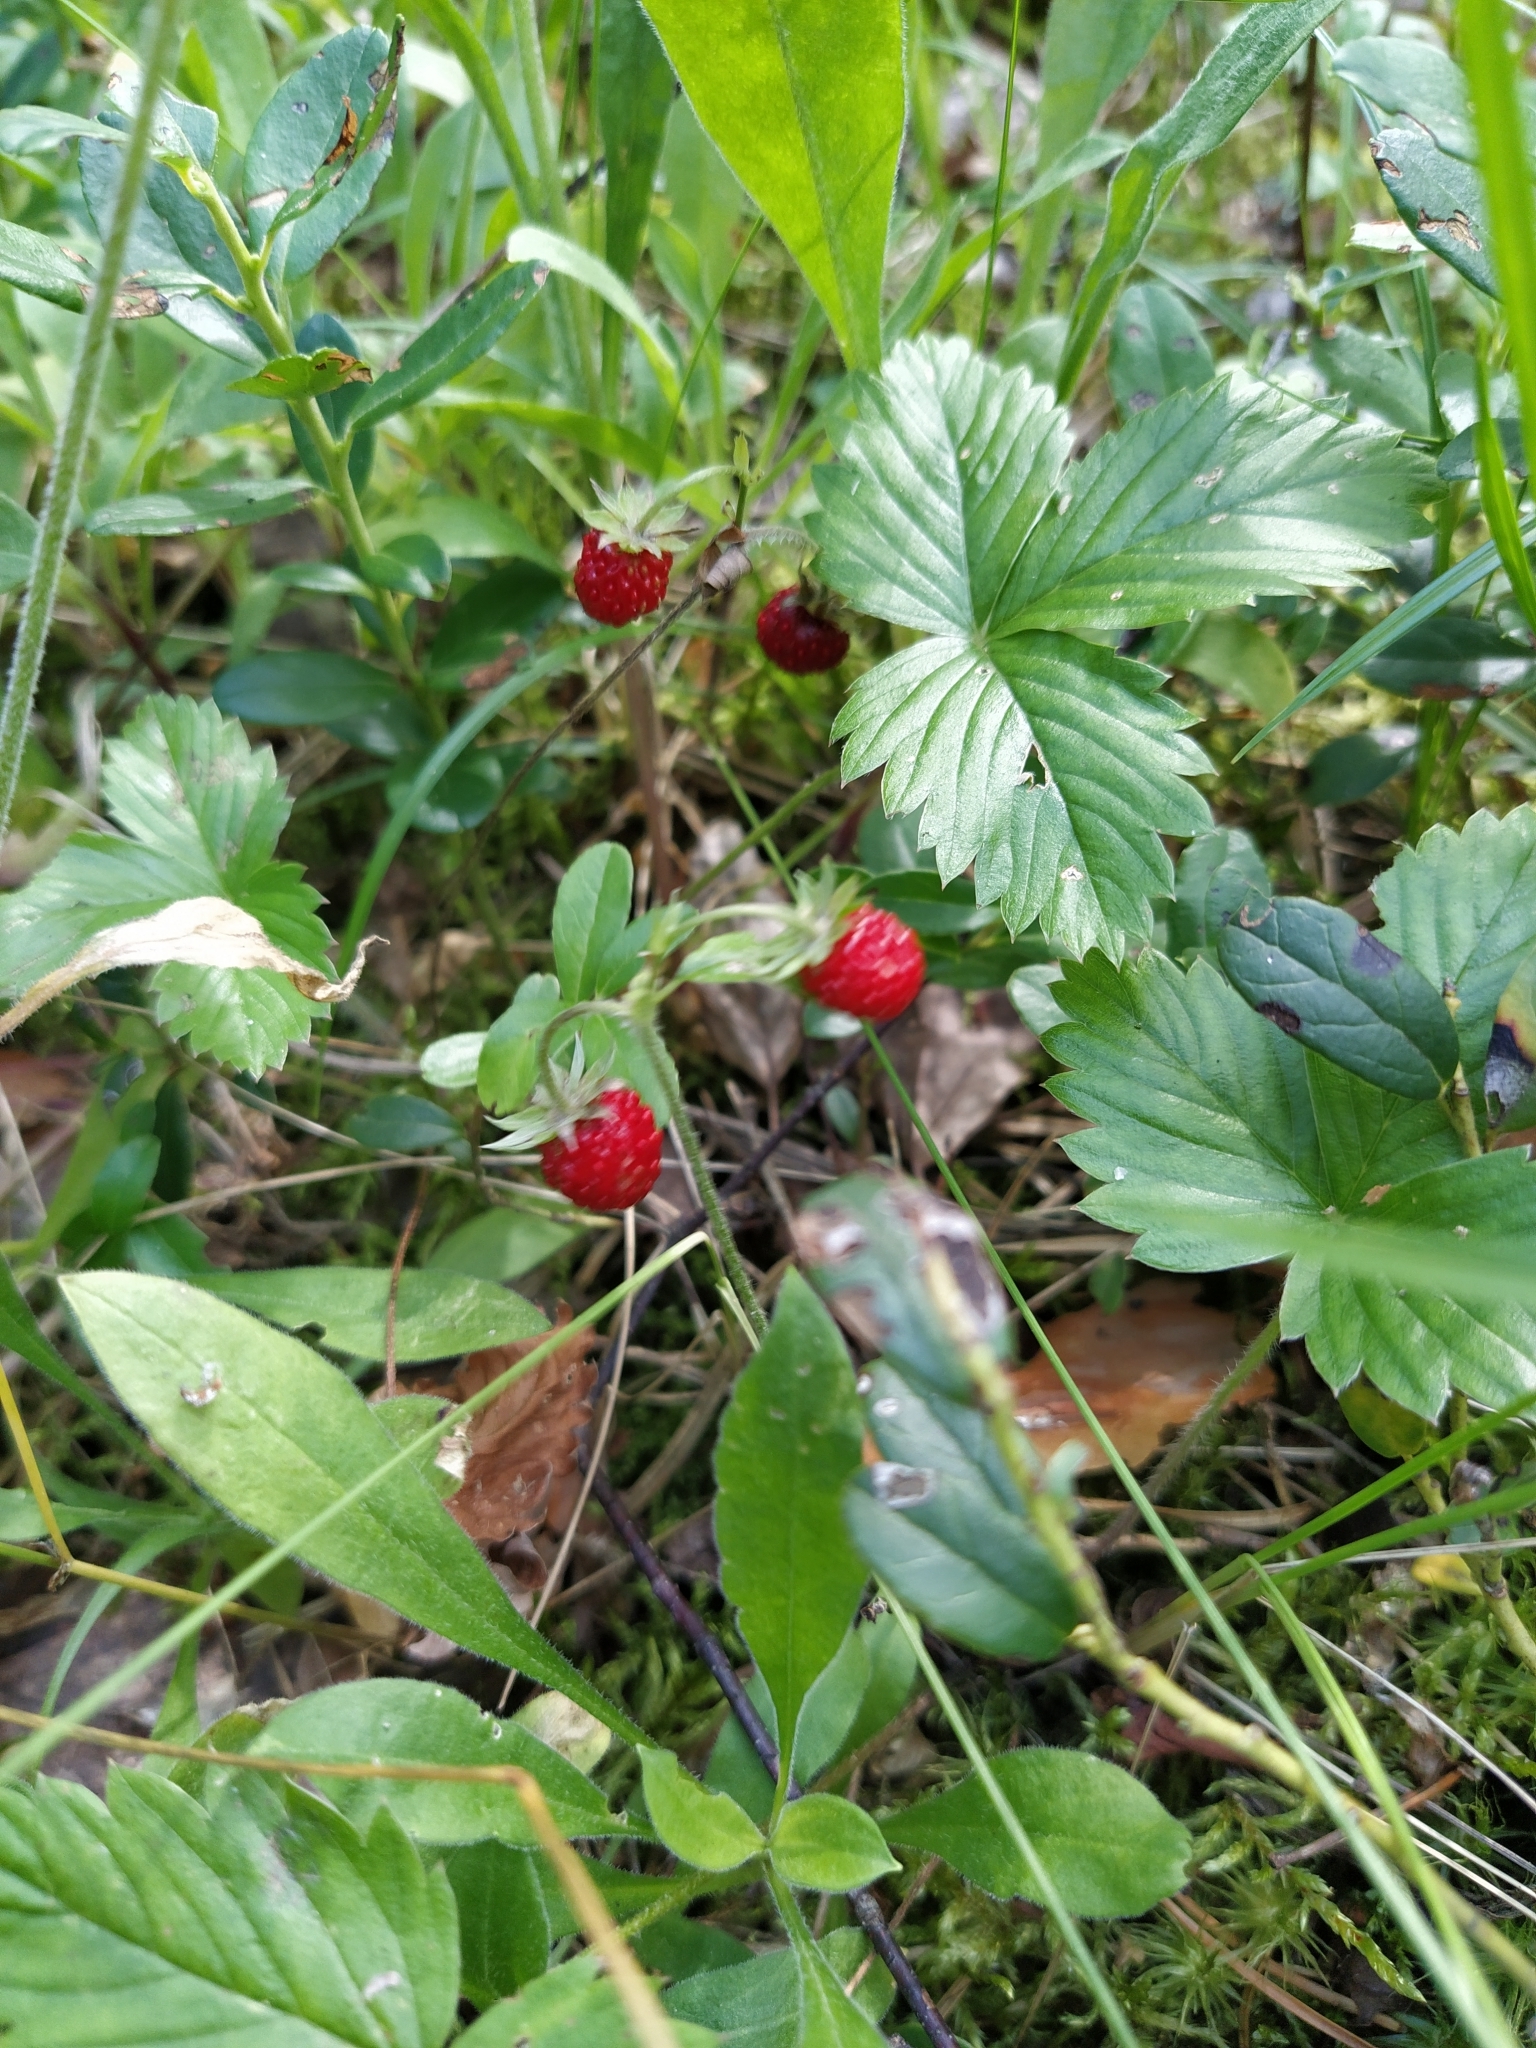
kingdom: Plantae
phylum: Tracheophyta
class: Magnoliopsida
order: Rosales
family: Rosaceae
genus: Fragaria
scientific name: Fragaria vesca
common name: Wild strawberry
